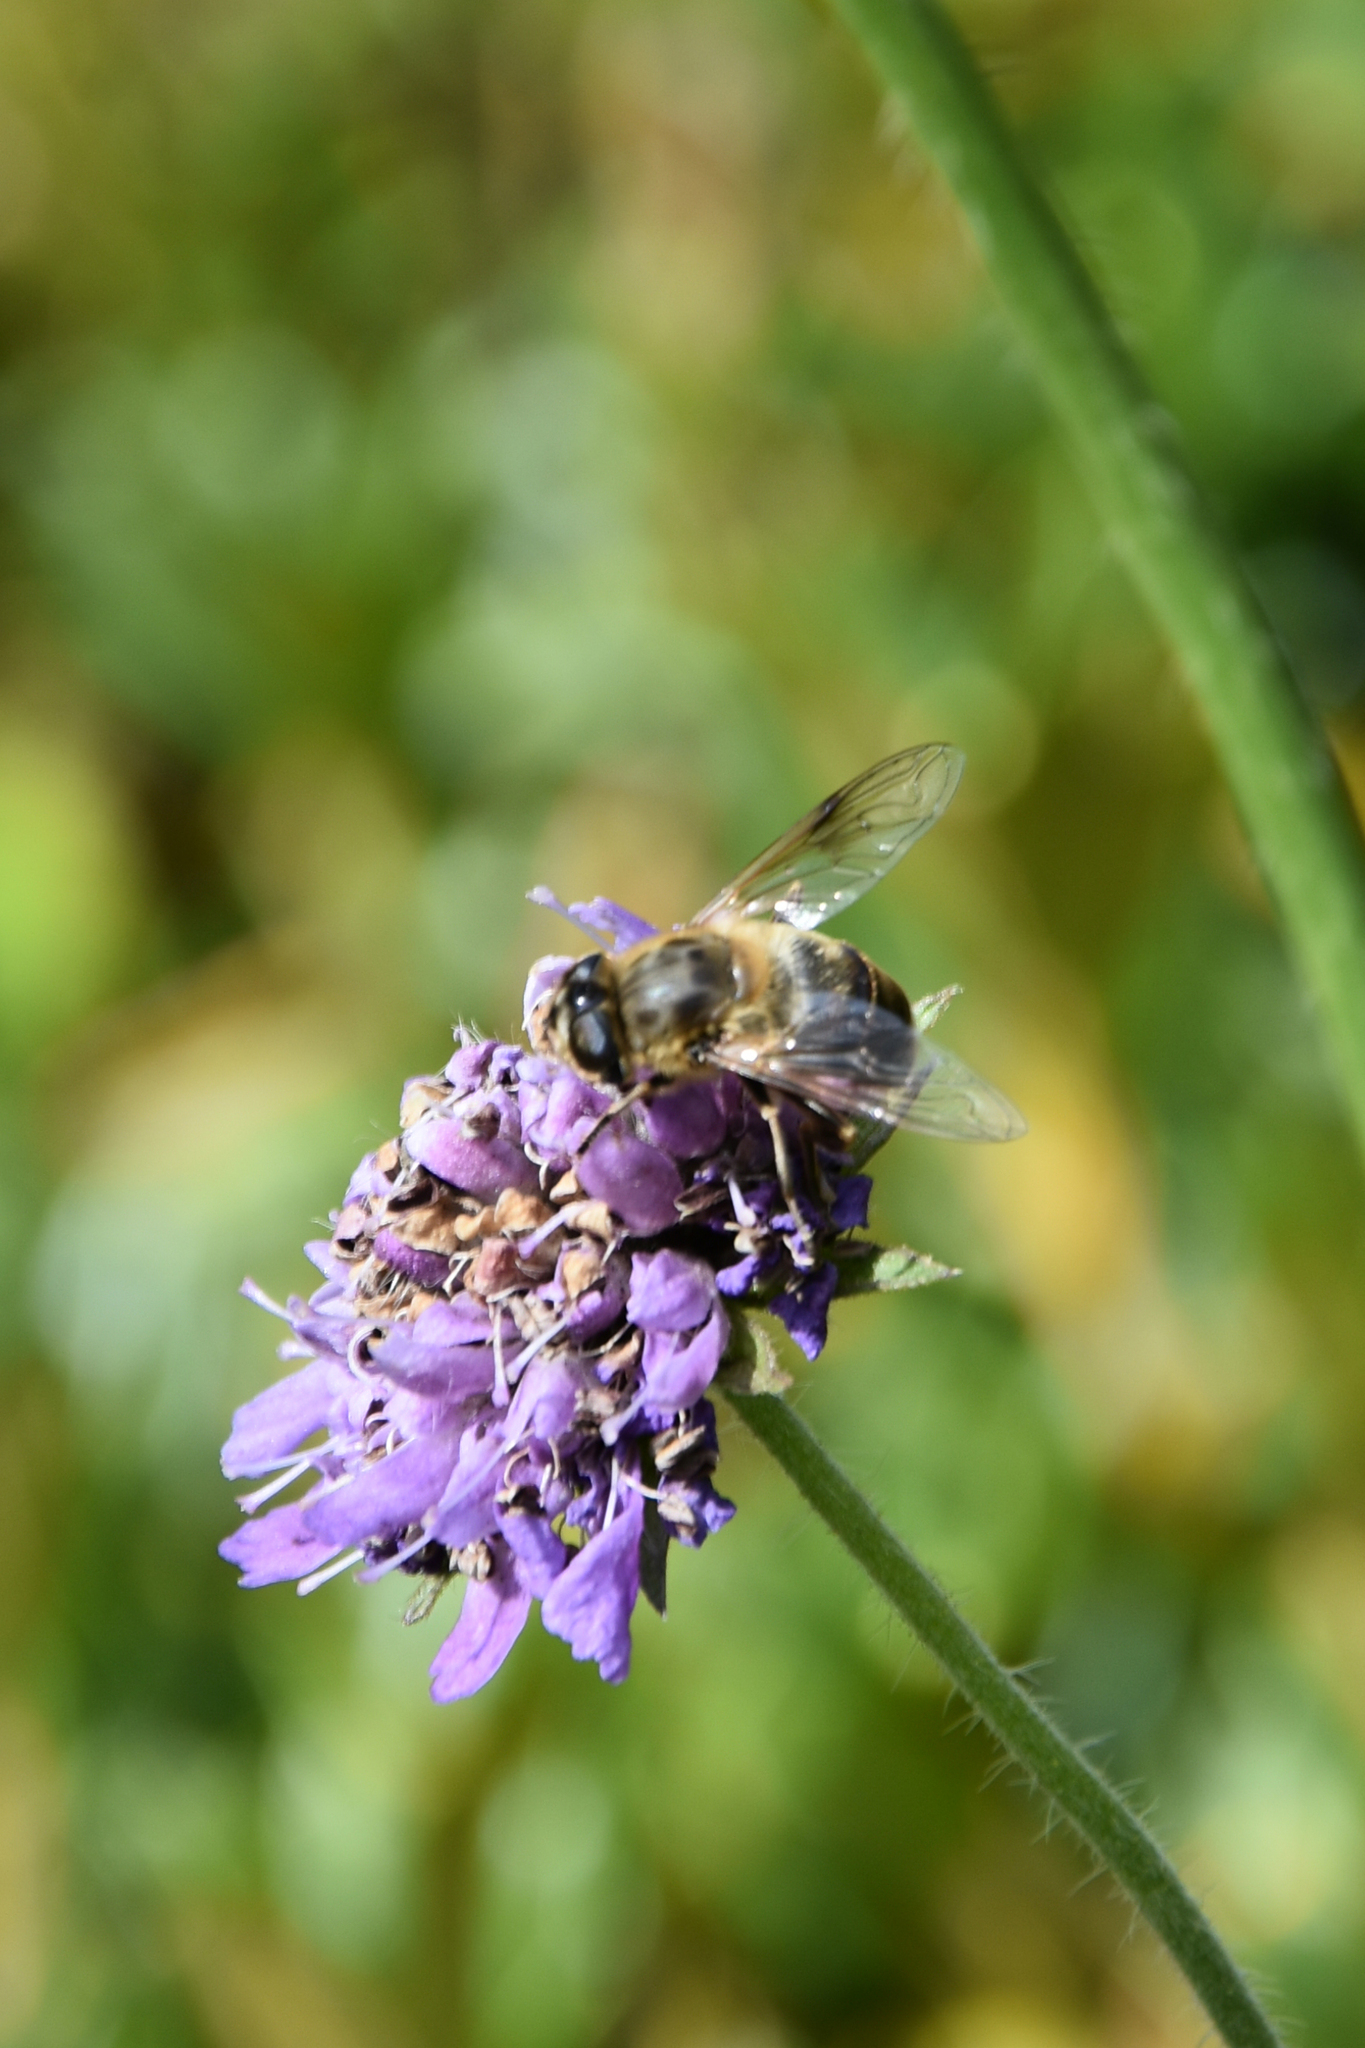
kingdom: Animalia
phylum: Arthropoda
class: Insecta
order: Diptera
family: Syrphidae
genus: Eristalis
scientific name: Eristalis tenax
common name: Drone fly
